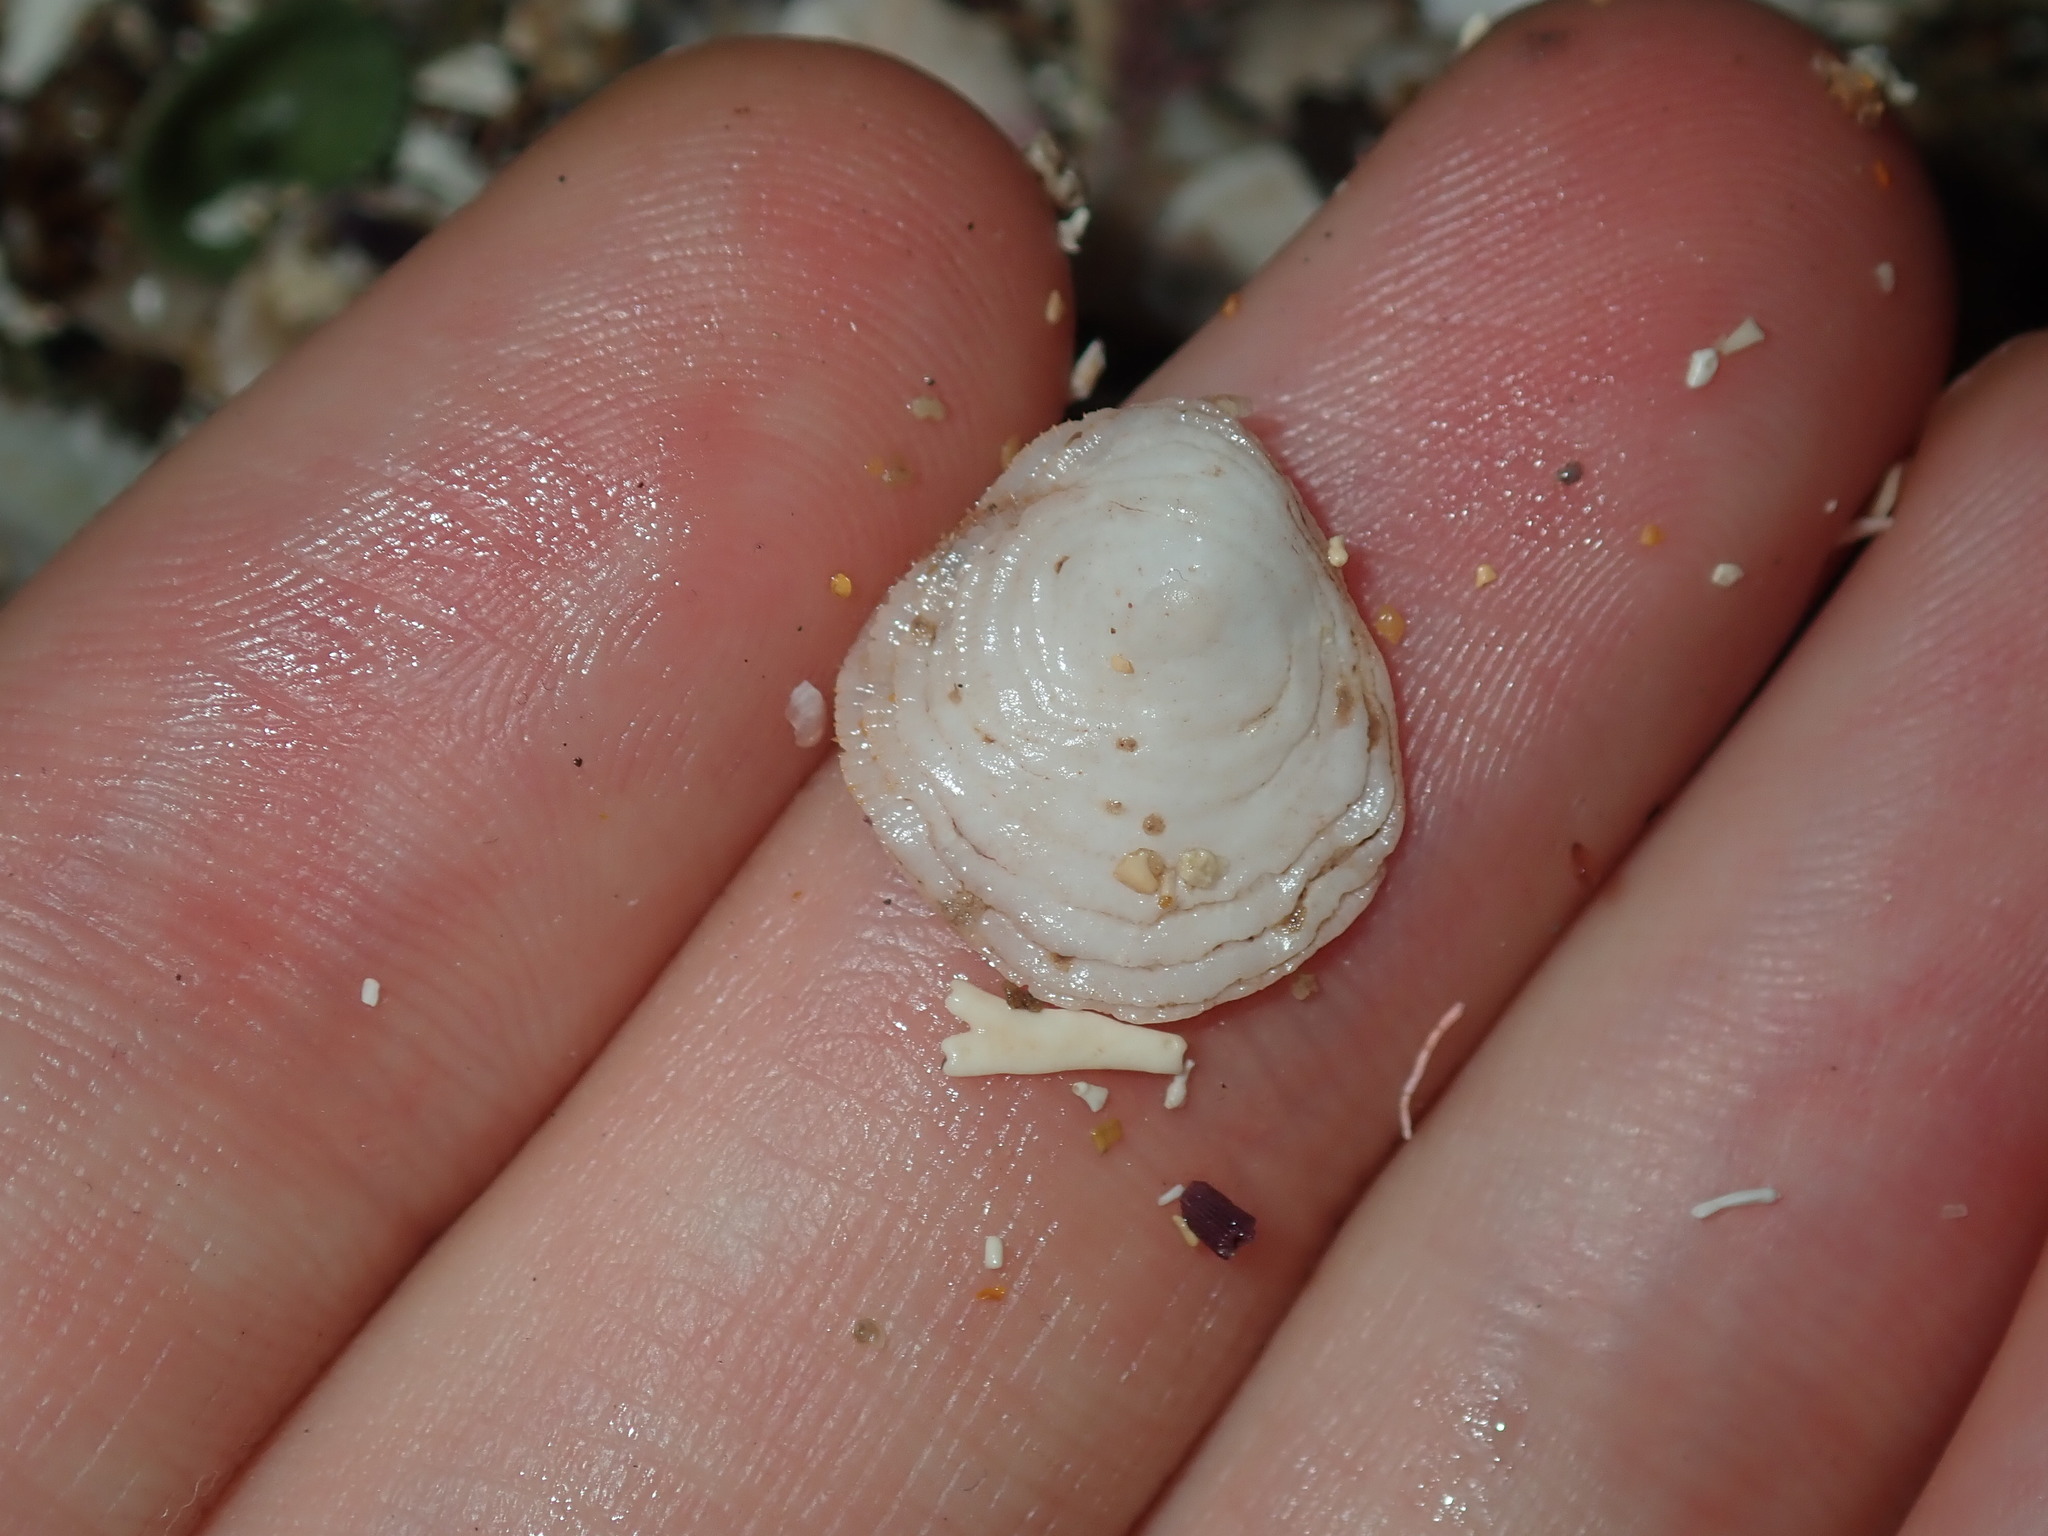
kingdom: Animalia
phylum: Mollusca
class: Gastropoda
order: Littorinimorpha
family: Hipponicidae
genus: Antisabia
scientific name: Antisabia foliacea
